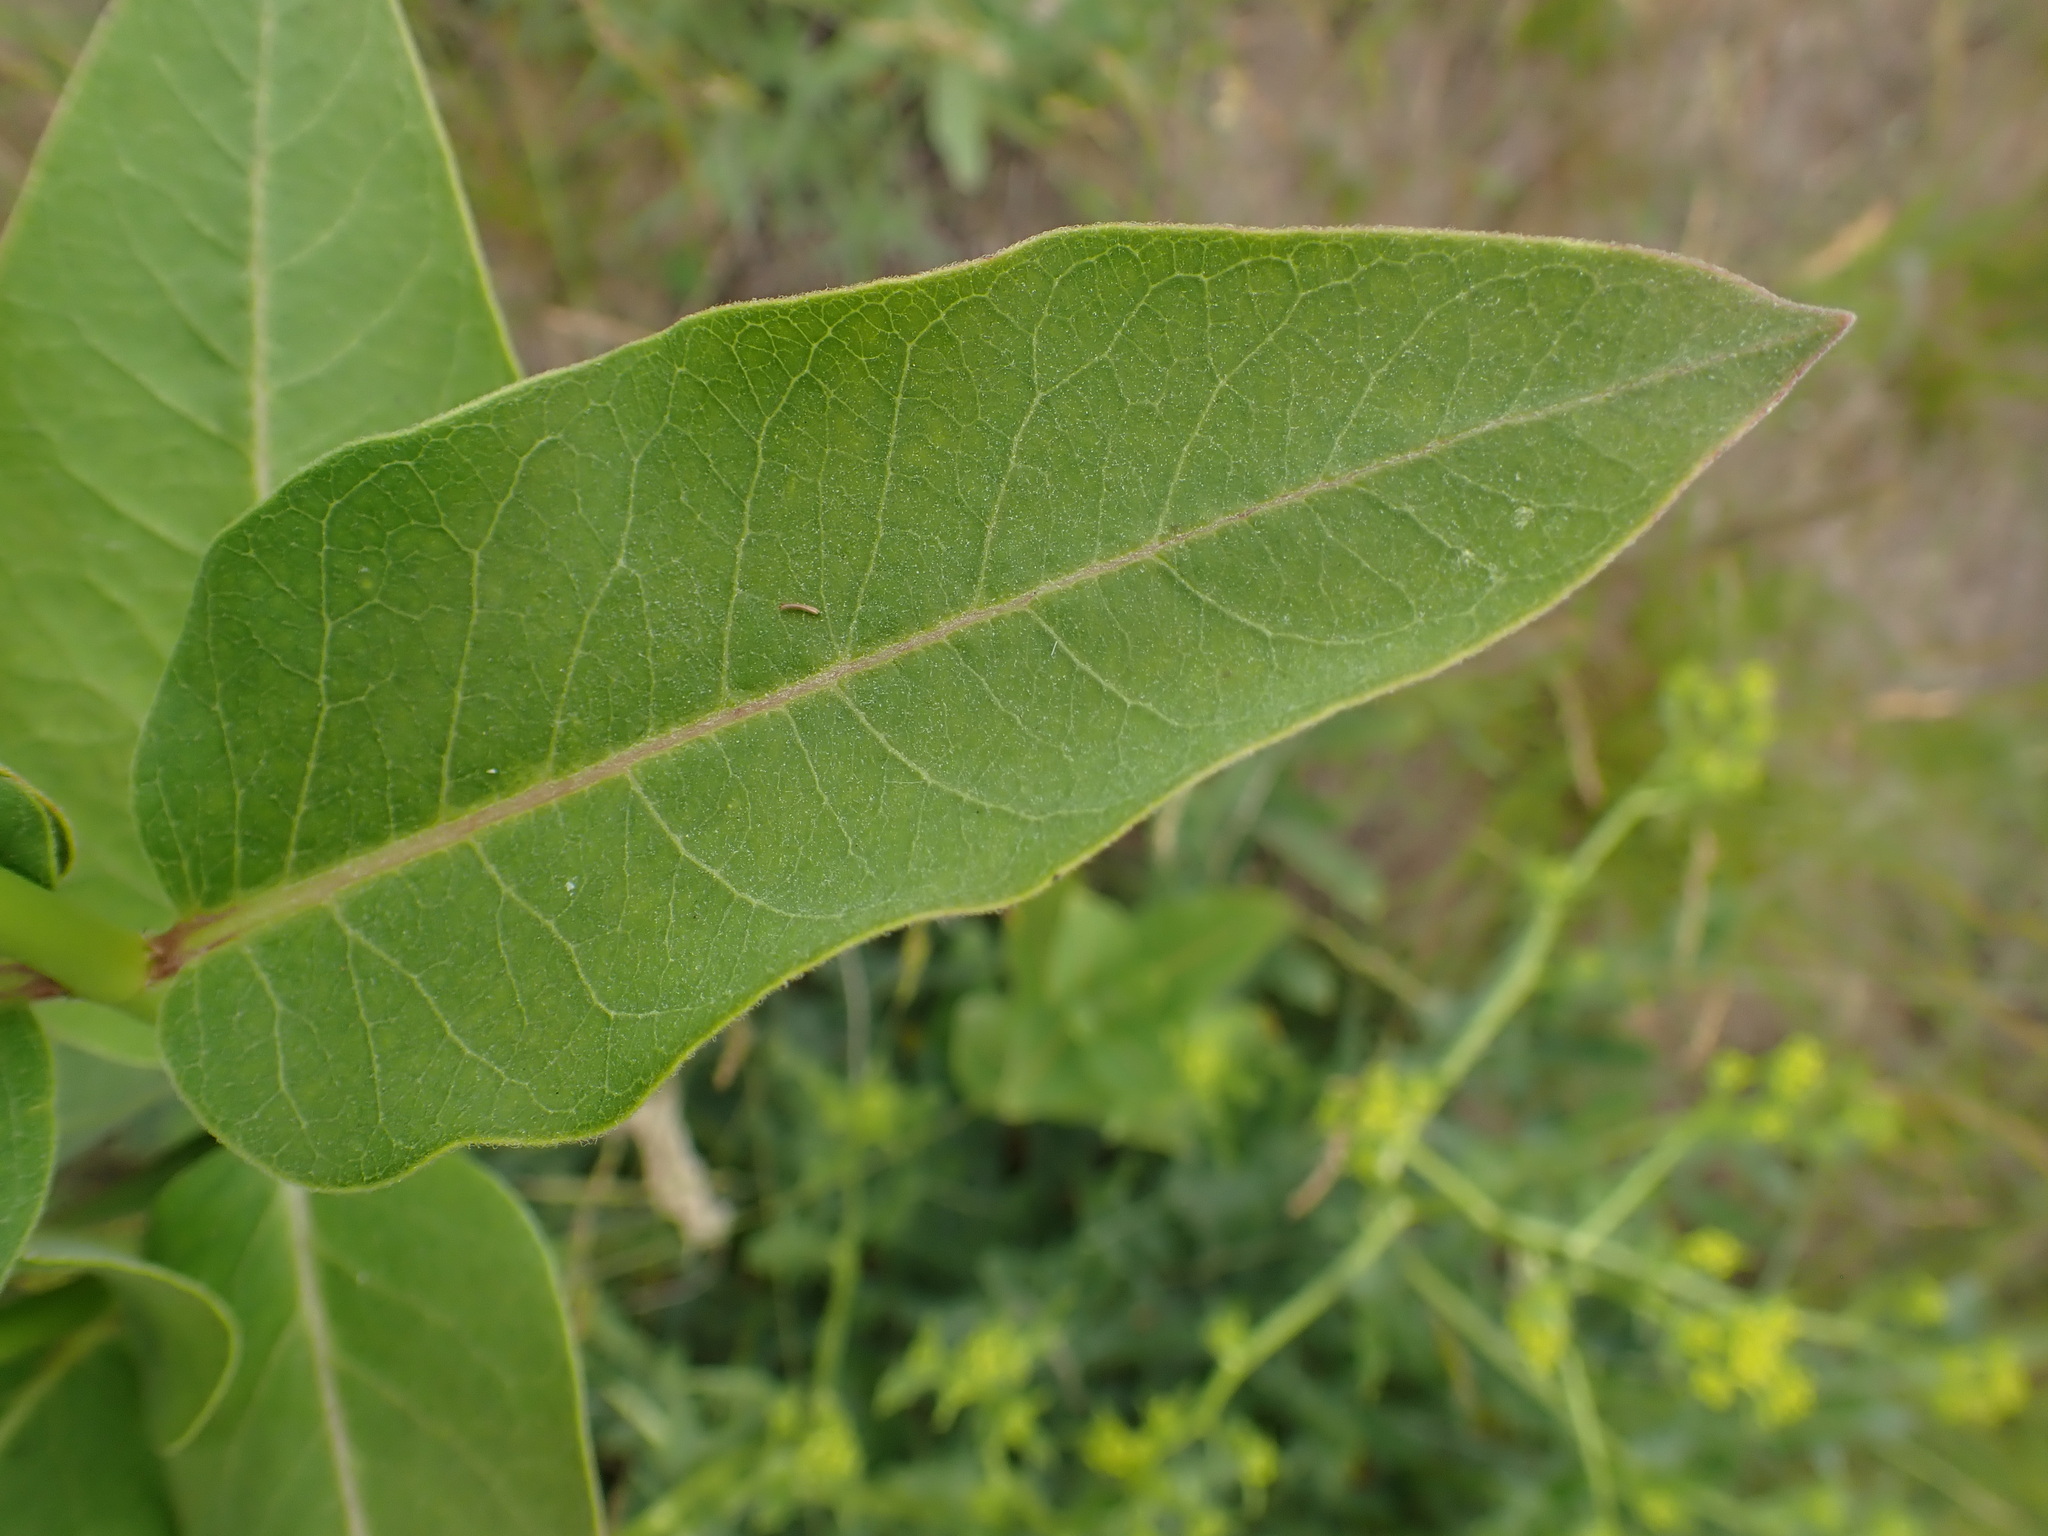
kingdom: Plantae
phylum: Tracheophyta
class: Magnoliopsida
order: Gentianales
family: Apocynaceae
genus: Asclepias
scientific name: Asclepias syriaca
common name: Common milkweed
